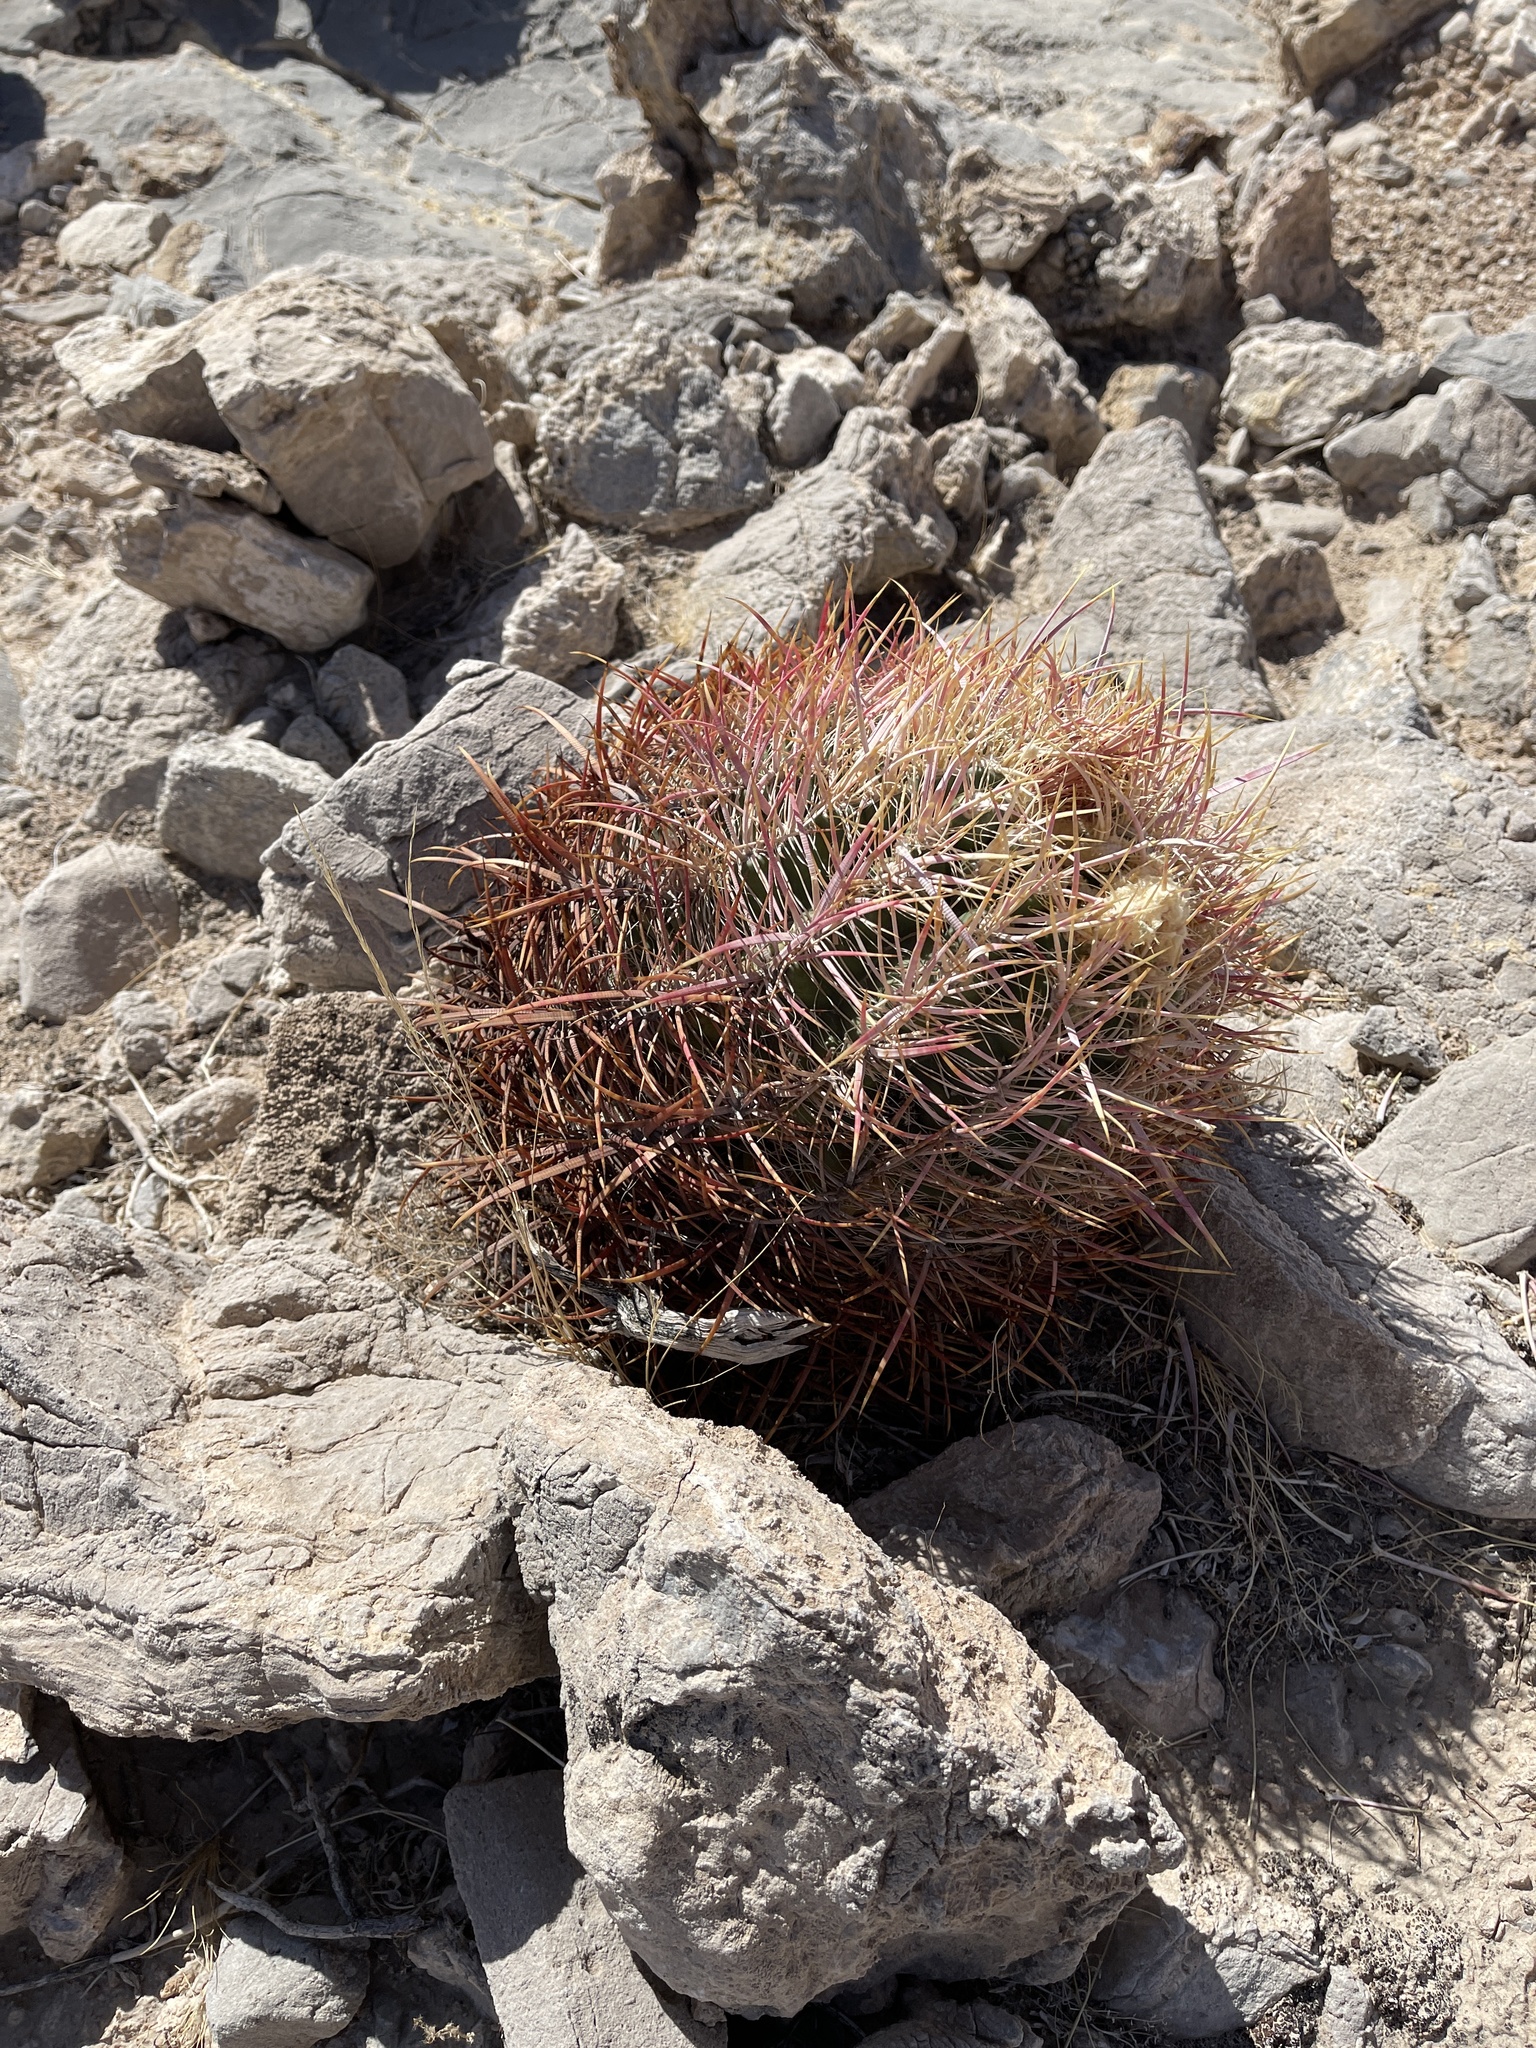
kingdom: Plantae
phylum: Tracheophyta
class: Magnoliopsida
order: Caryophyllales
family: Cactaceae
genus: Ferocactus
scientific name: Ferocactus cylindraceus
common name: California barrel cactus
